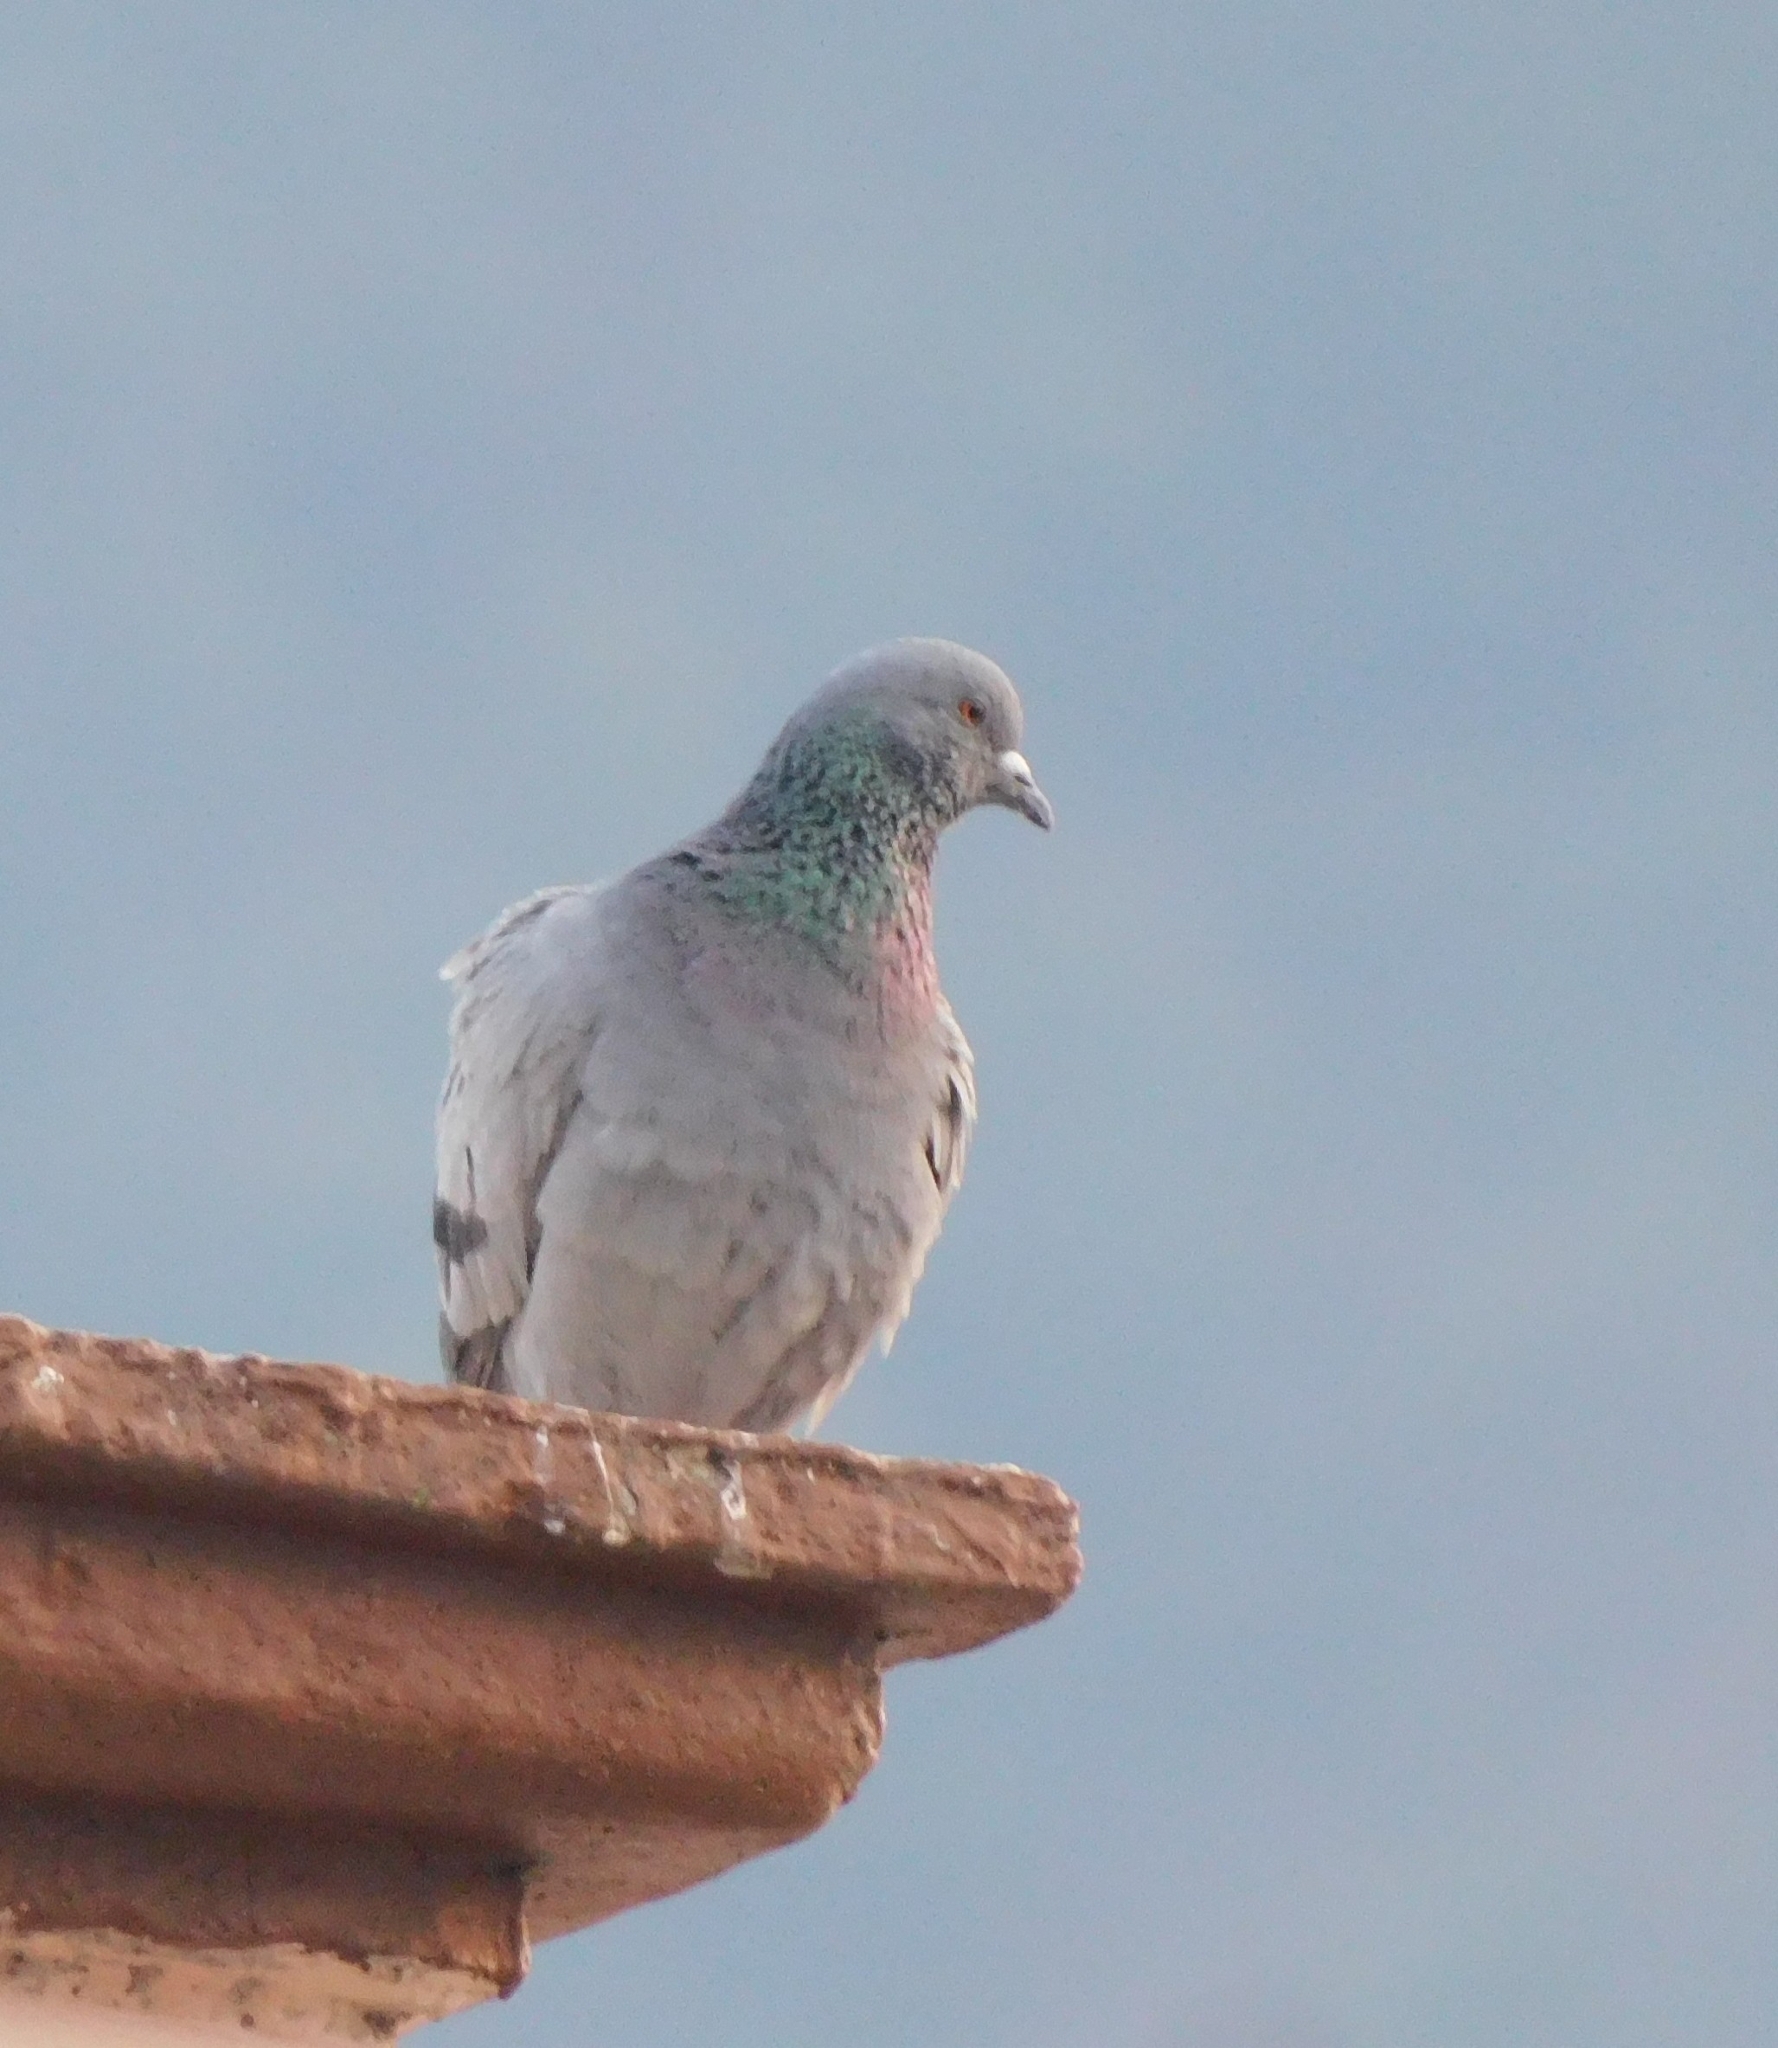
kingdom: Animalia
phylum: Chordata
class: Aves
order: Columbiformes
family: Columbidae
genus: Columba
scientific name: Columba livia
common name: Rock pigeon
